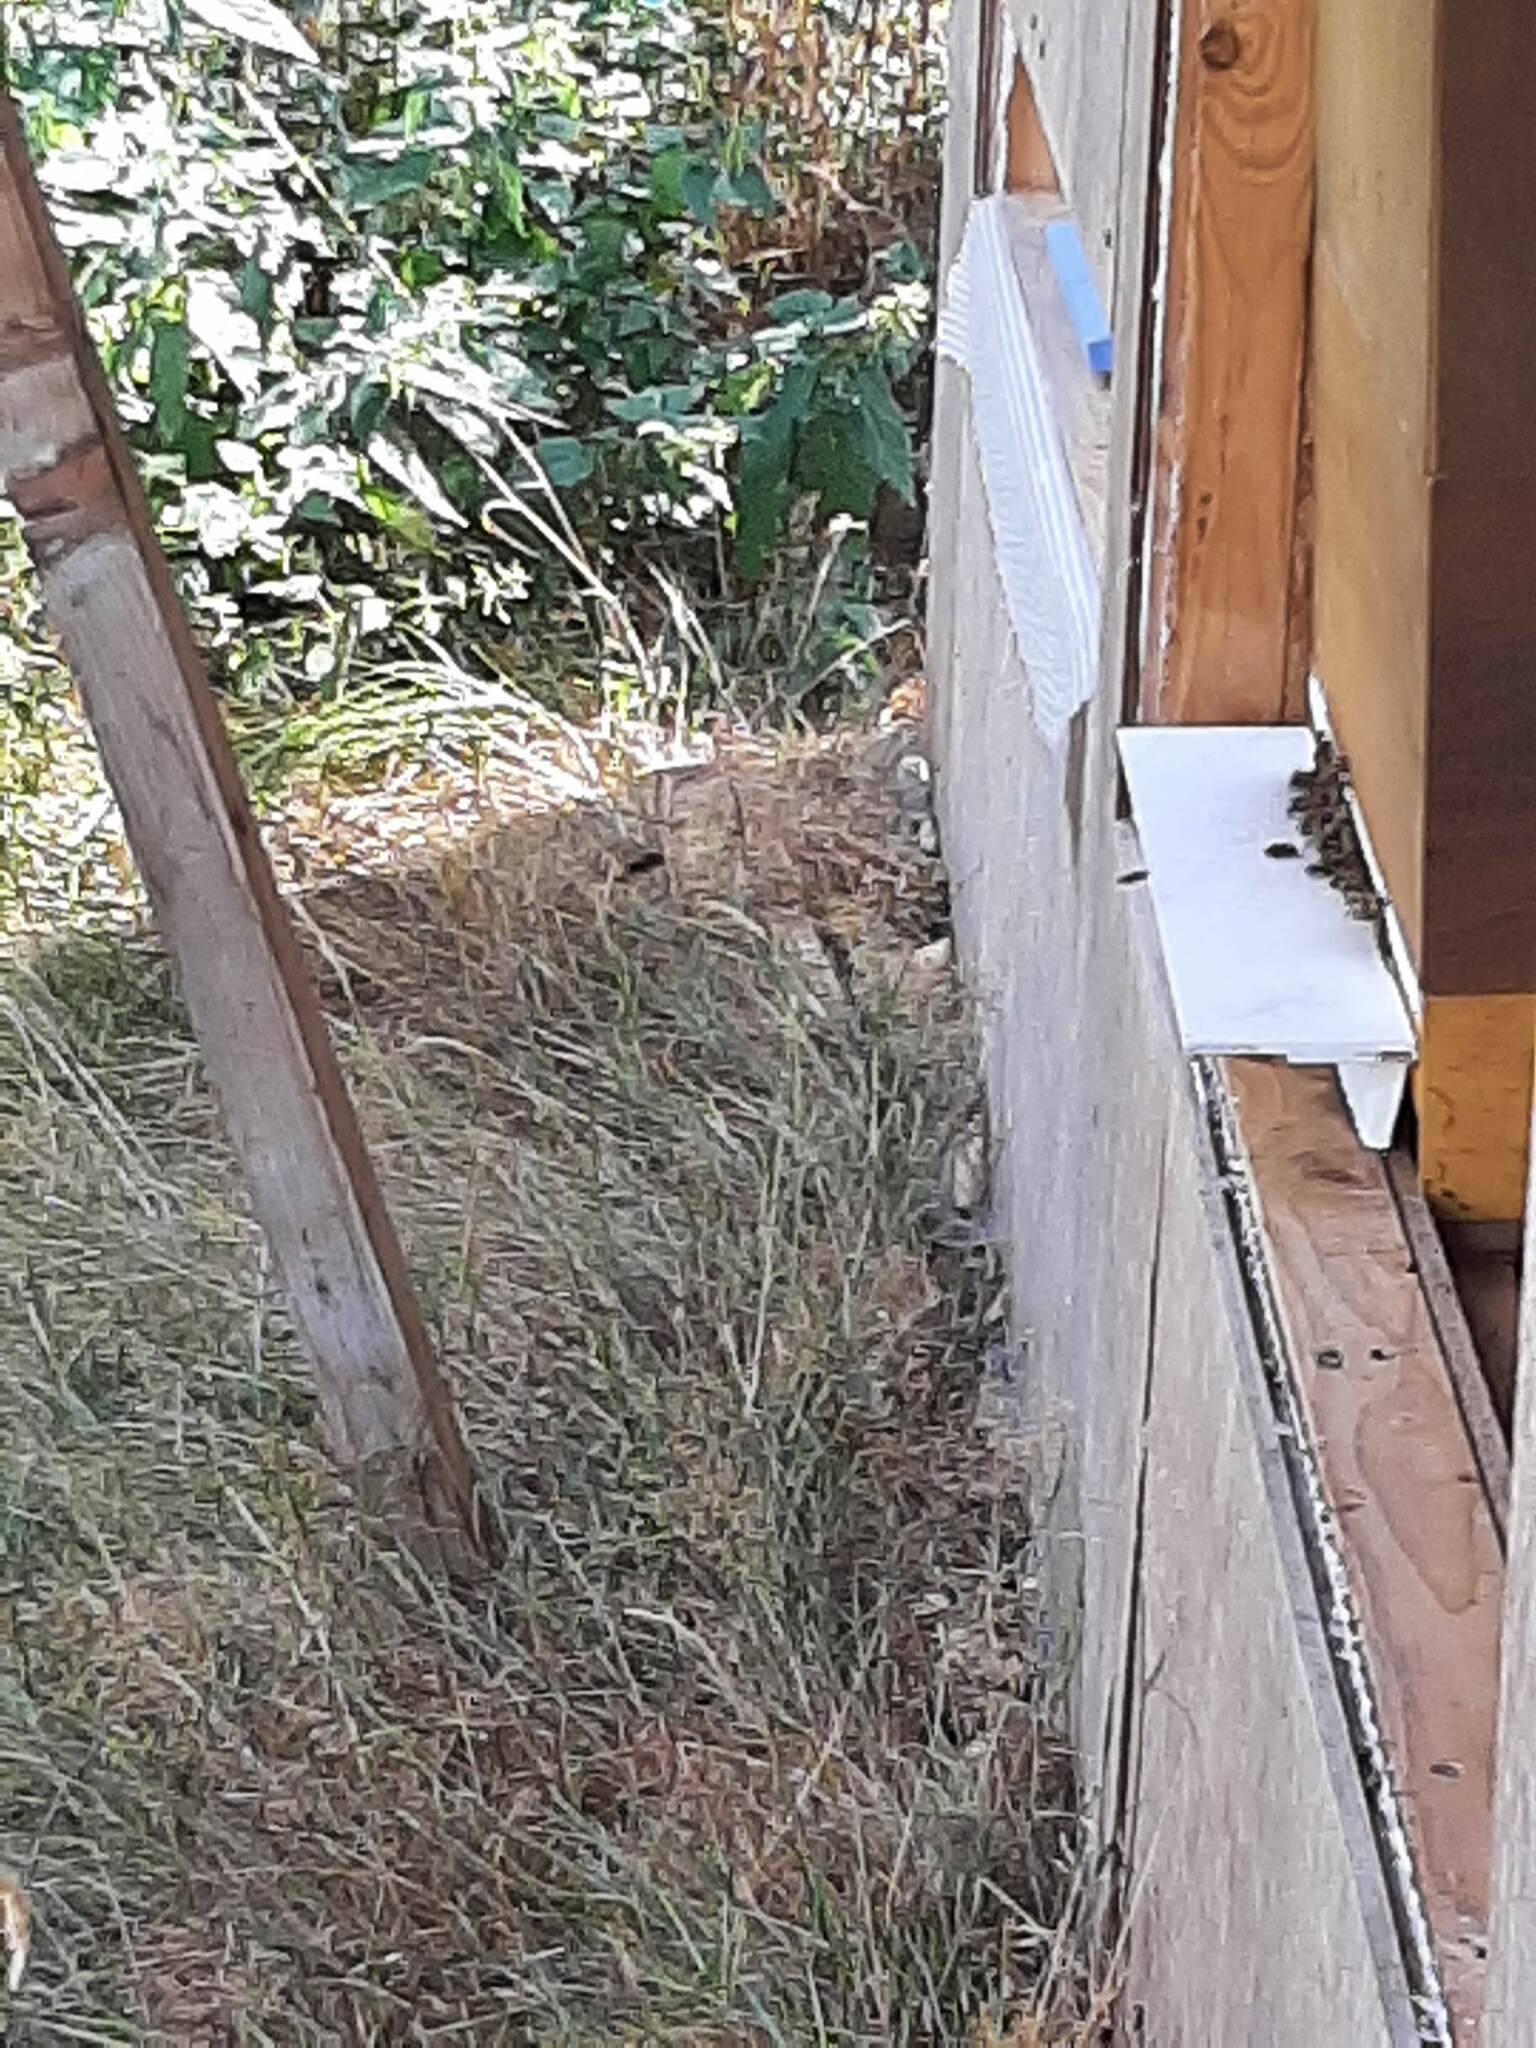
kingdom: Animalia
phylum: Arthropoda
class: Insecta
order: Hymenoptera
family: Vespidae
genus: Vespa
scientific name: Vespa velutina
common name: Asian hornet
